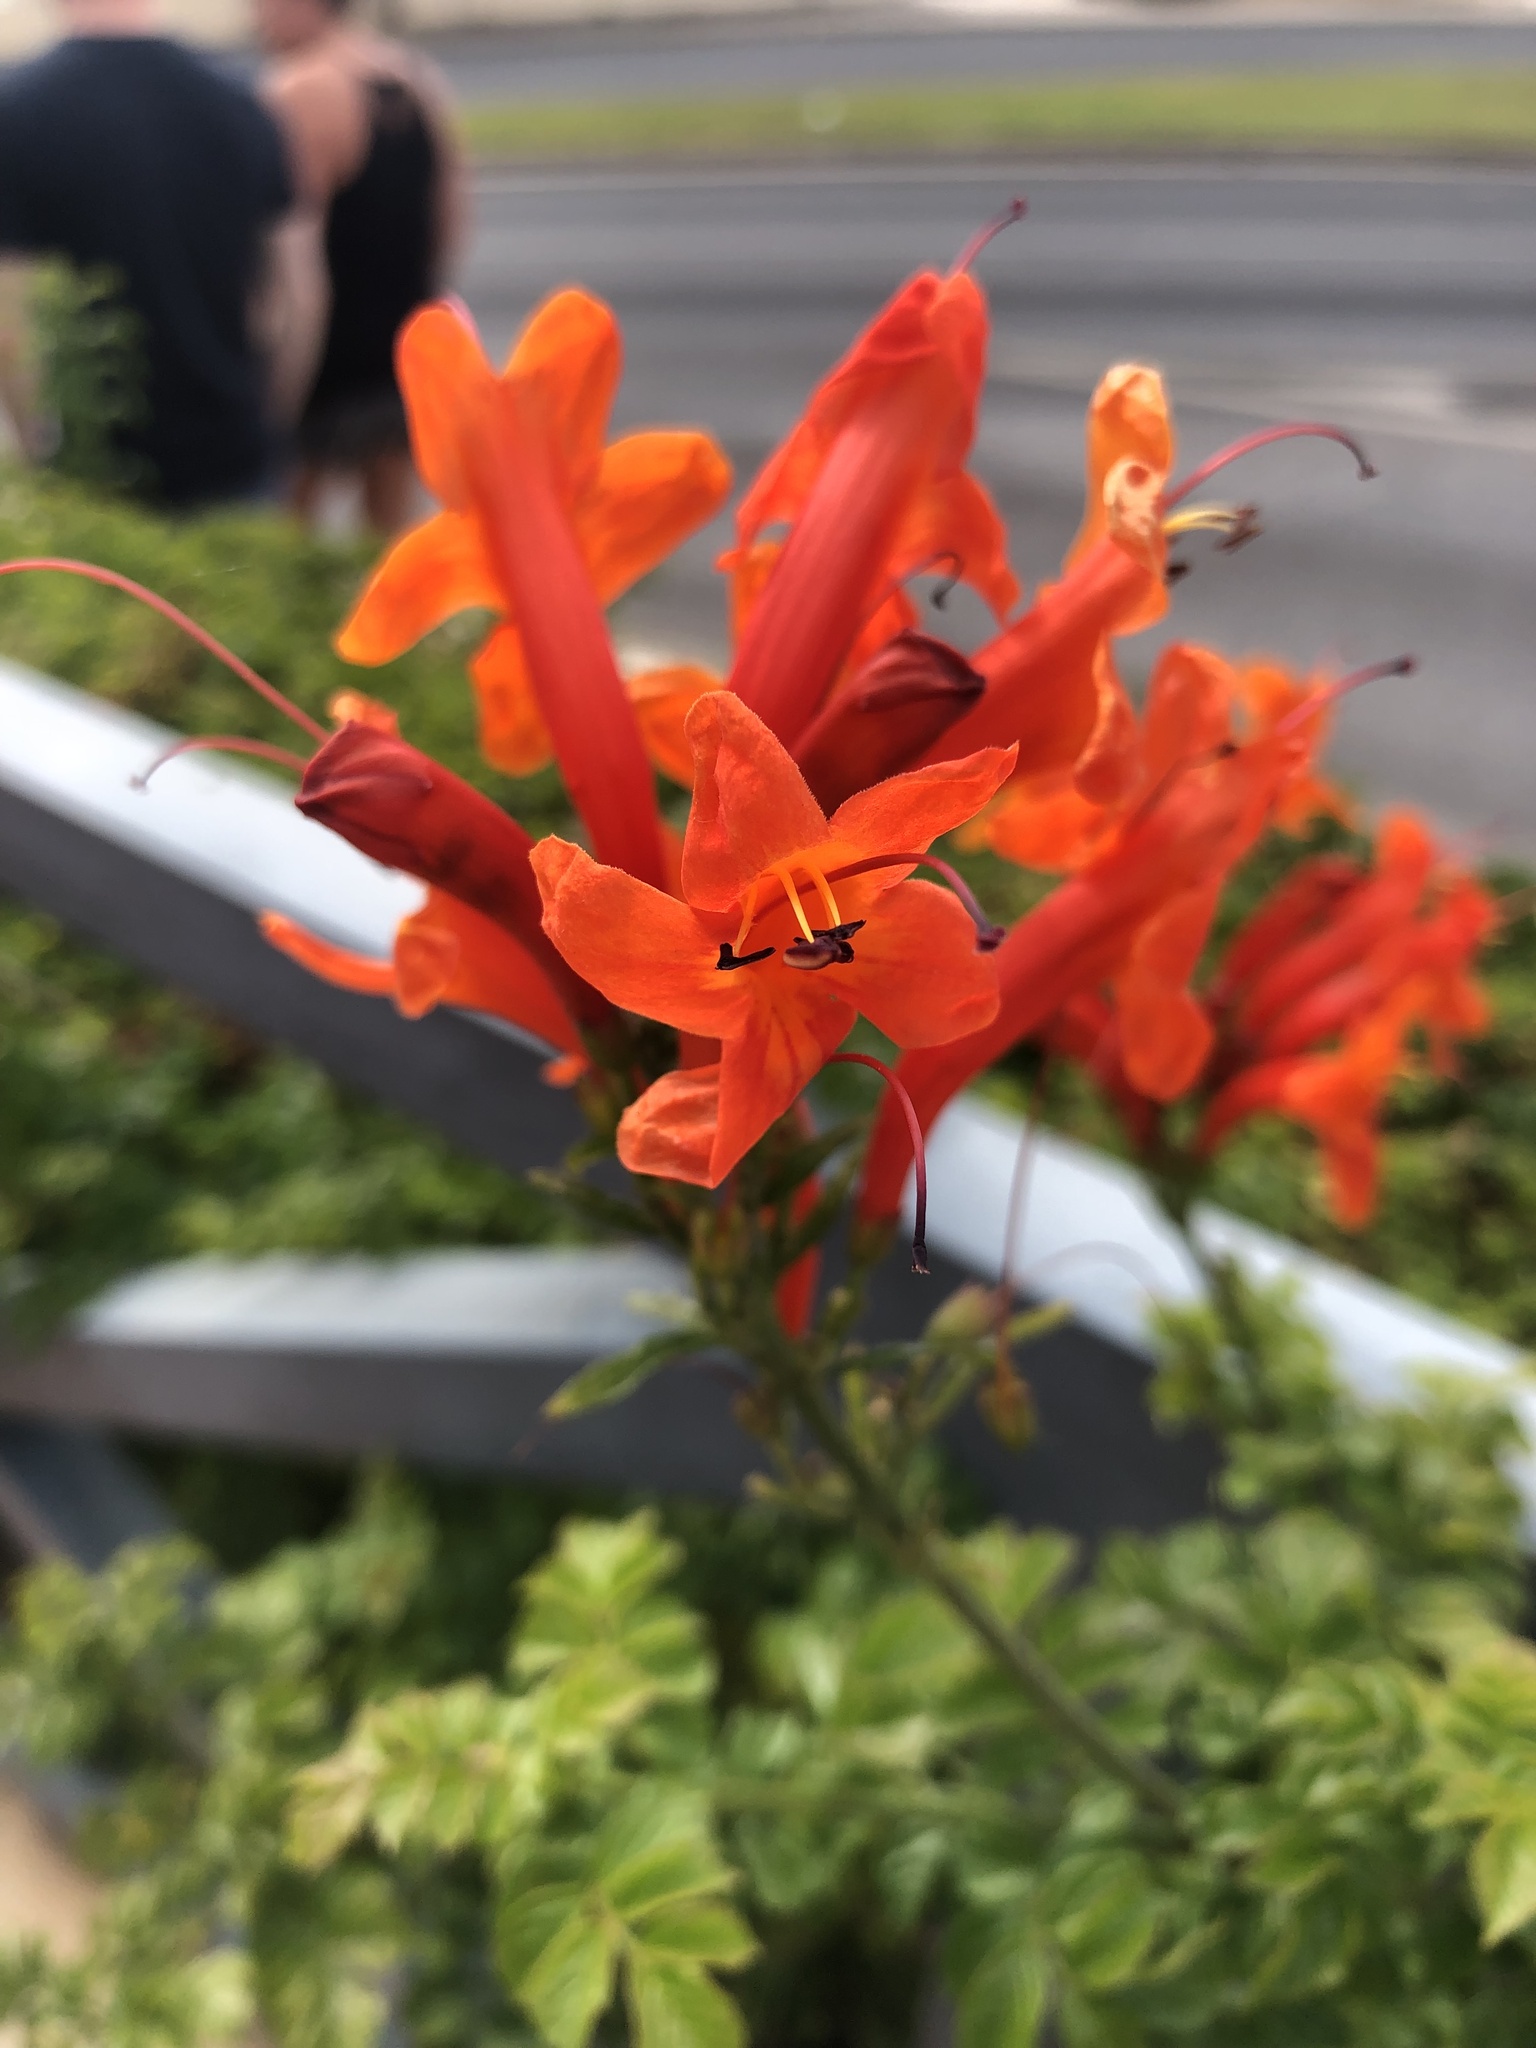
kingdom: Plantae
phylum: Tracheophyta
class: Magnoliopsida
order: Lamiales
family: Bignoniaceae
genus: Tecomaria
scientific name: Tecomaria capensis
